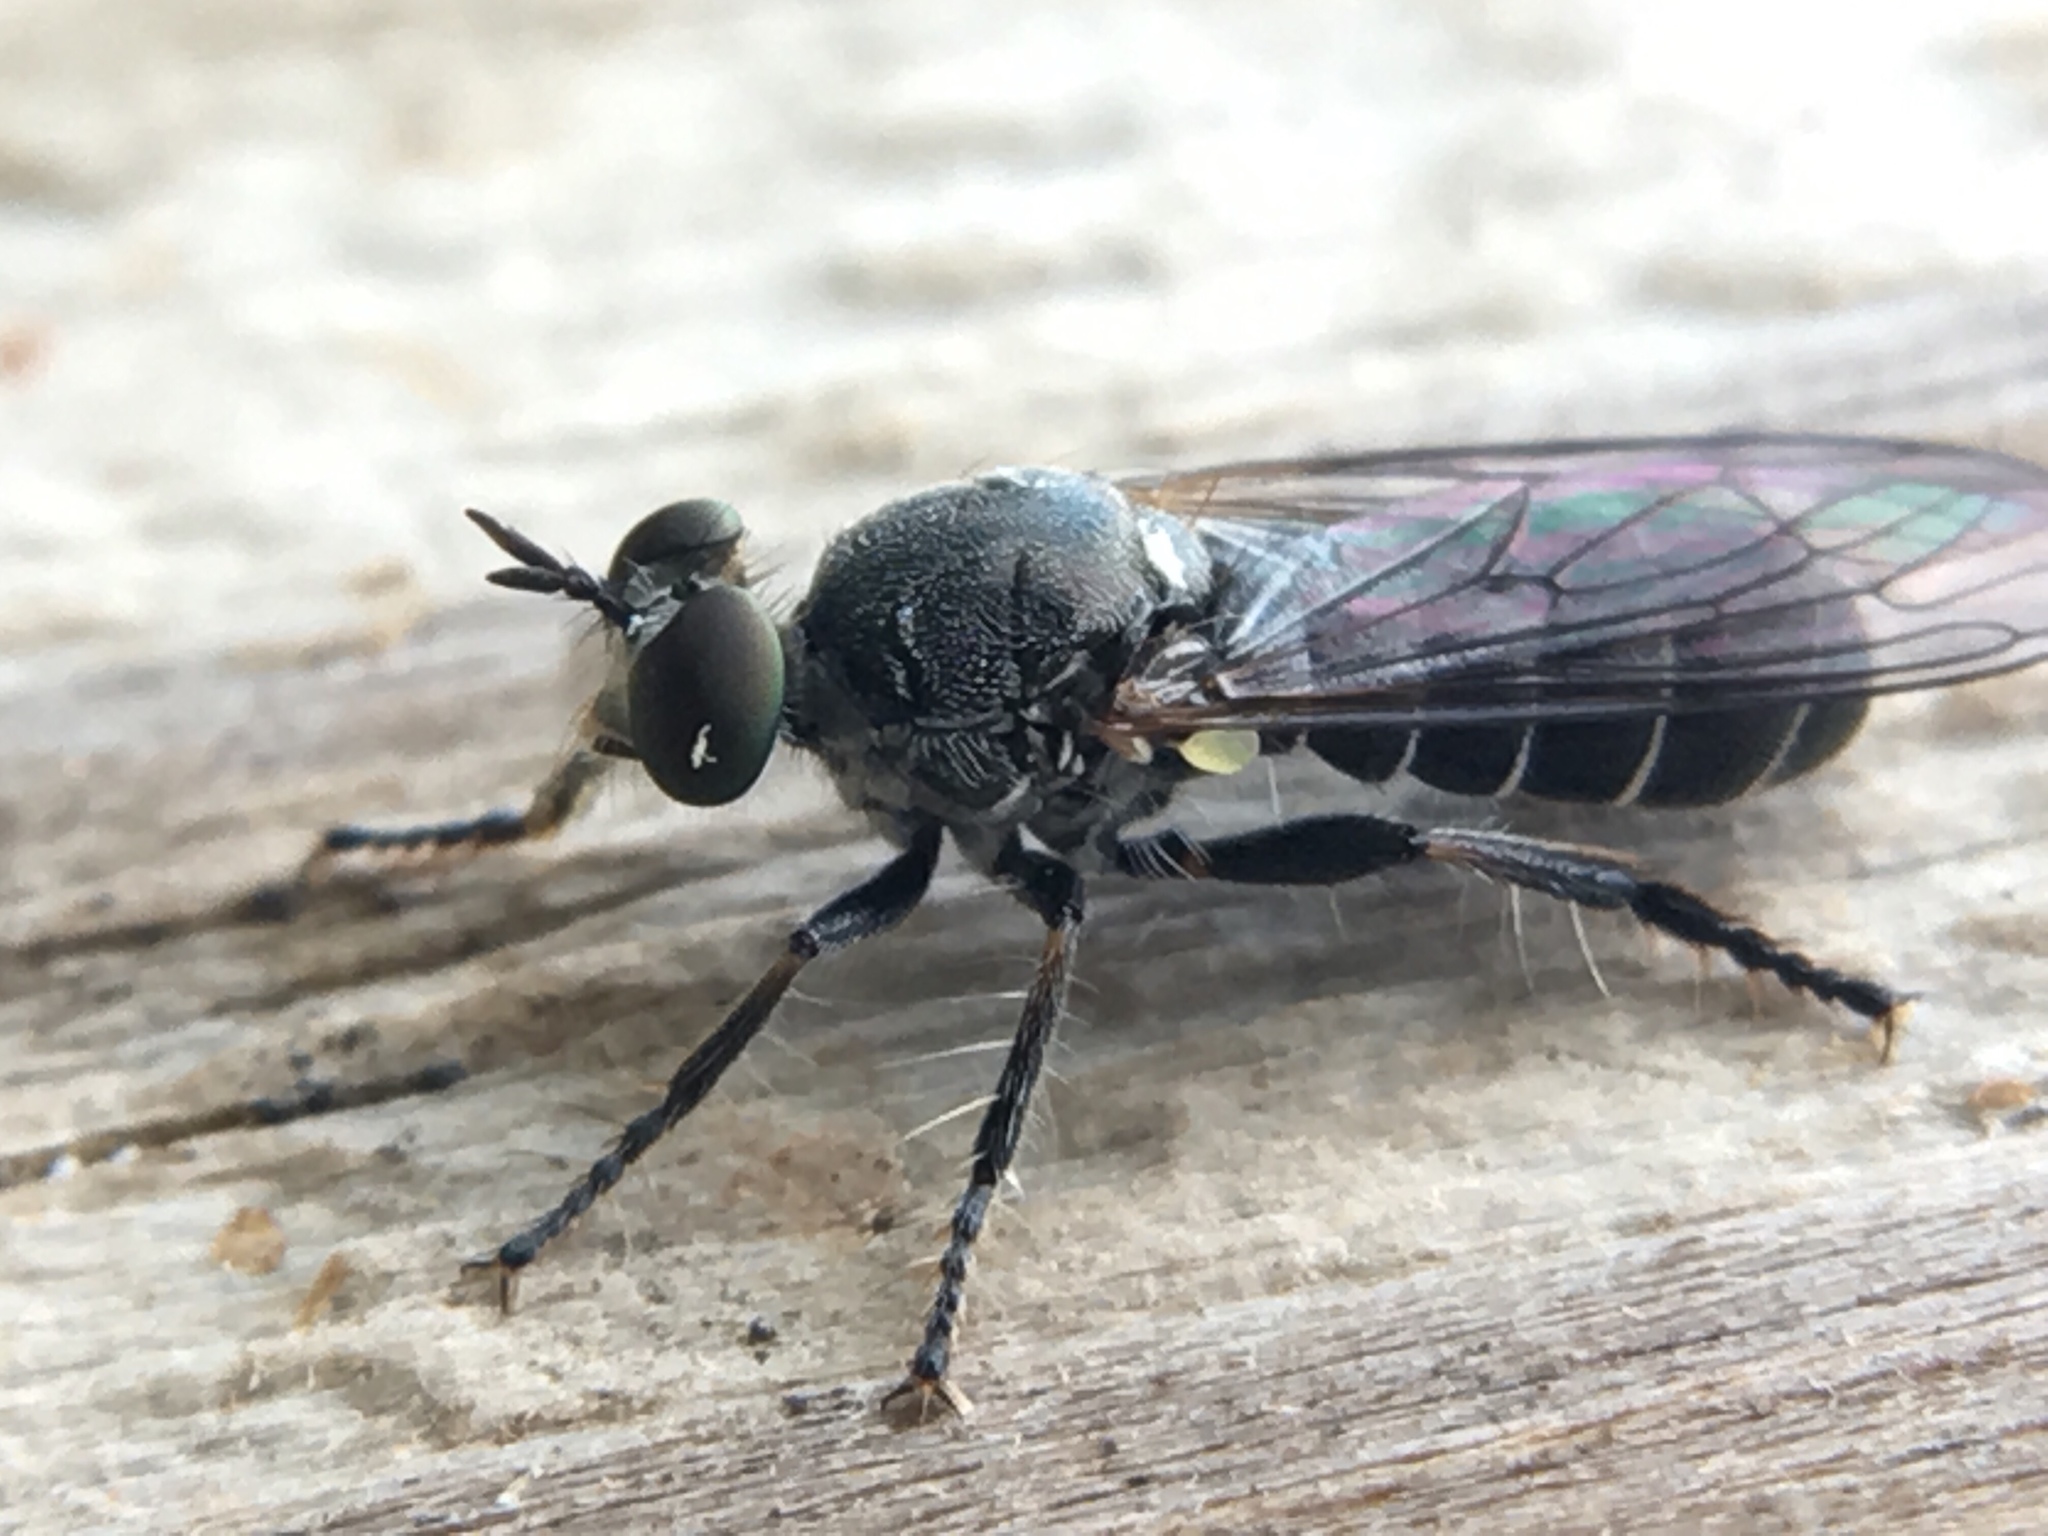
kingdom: Animalia
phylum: Arthropoda
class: Insecta
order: Diptera
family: Asilidae
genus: Atomosia
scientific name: Atomosia puella
